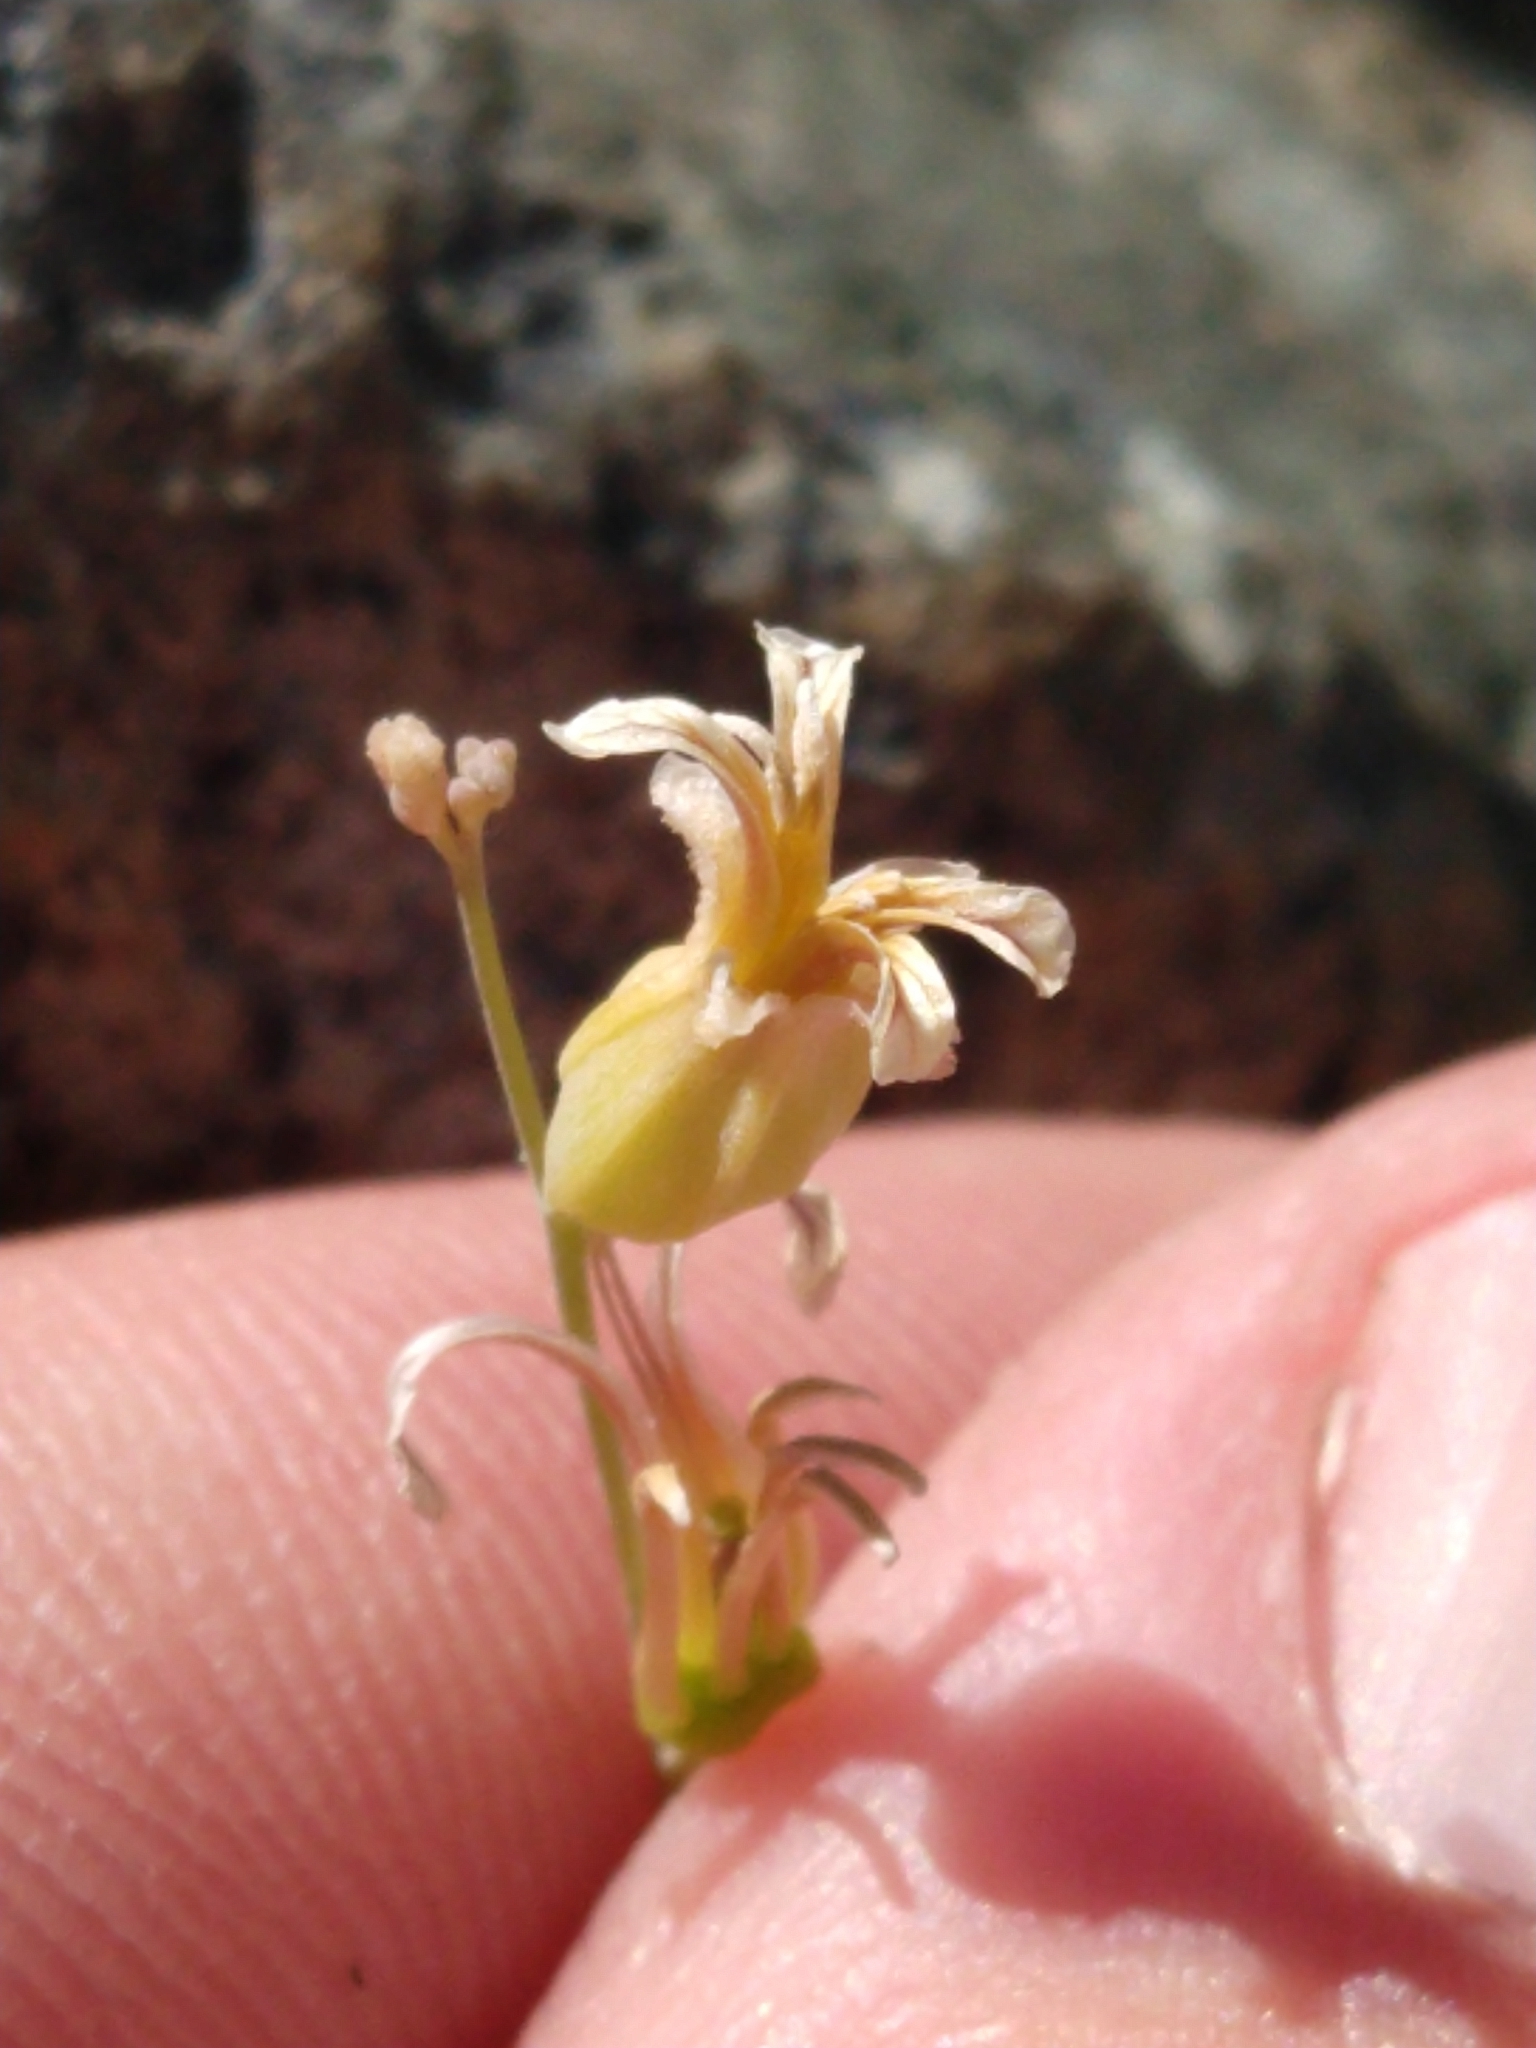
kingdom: Plantae
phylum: Tracheophyta
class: Magnoliopsida
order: Brassicales
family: Brassicaceae
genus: Streptanthus
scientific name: Streptanthus tortuosus
